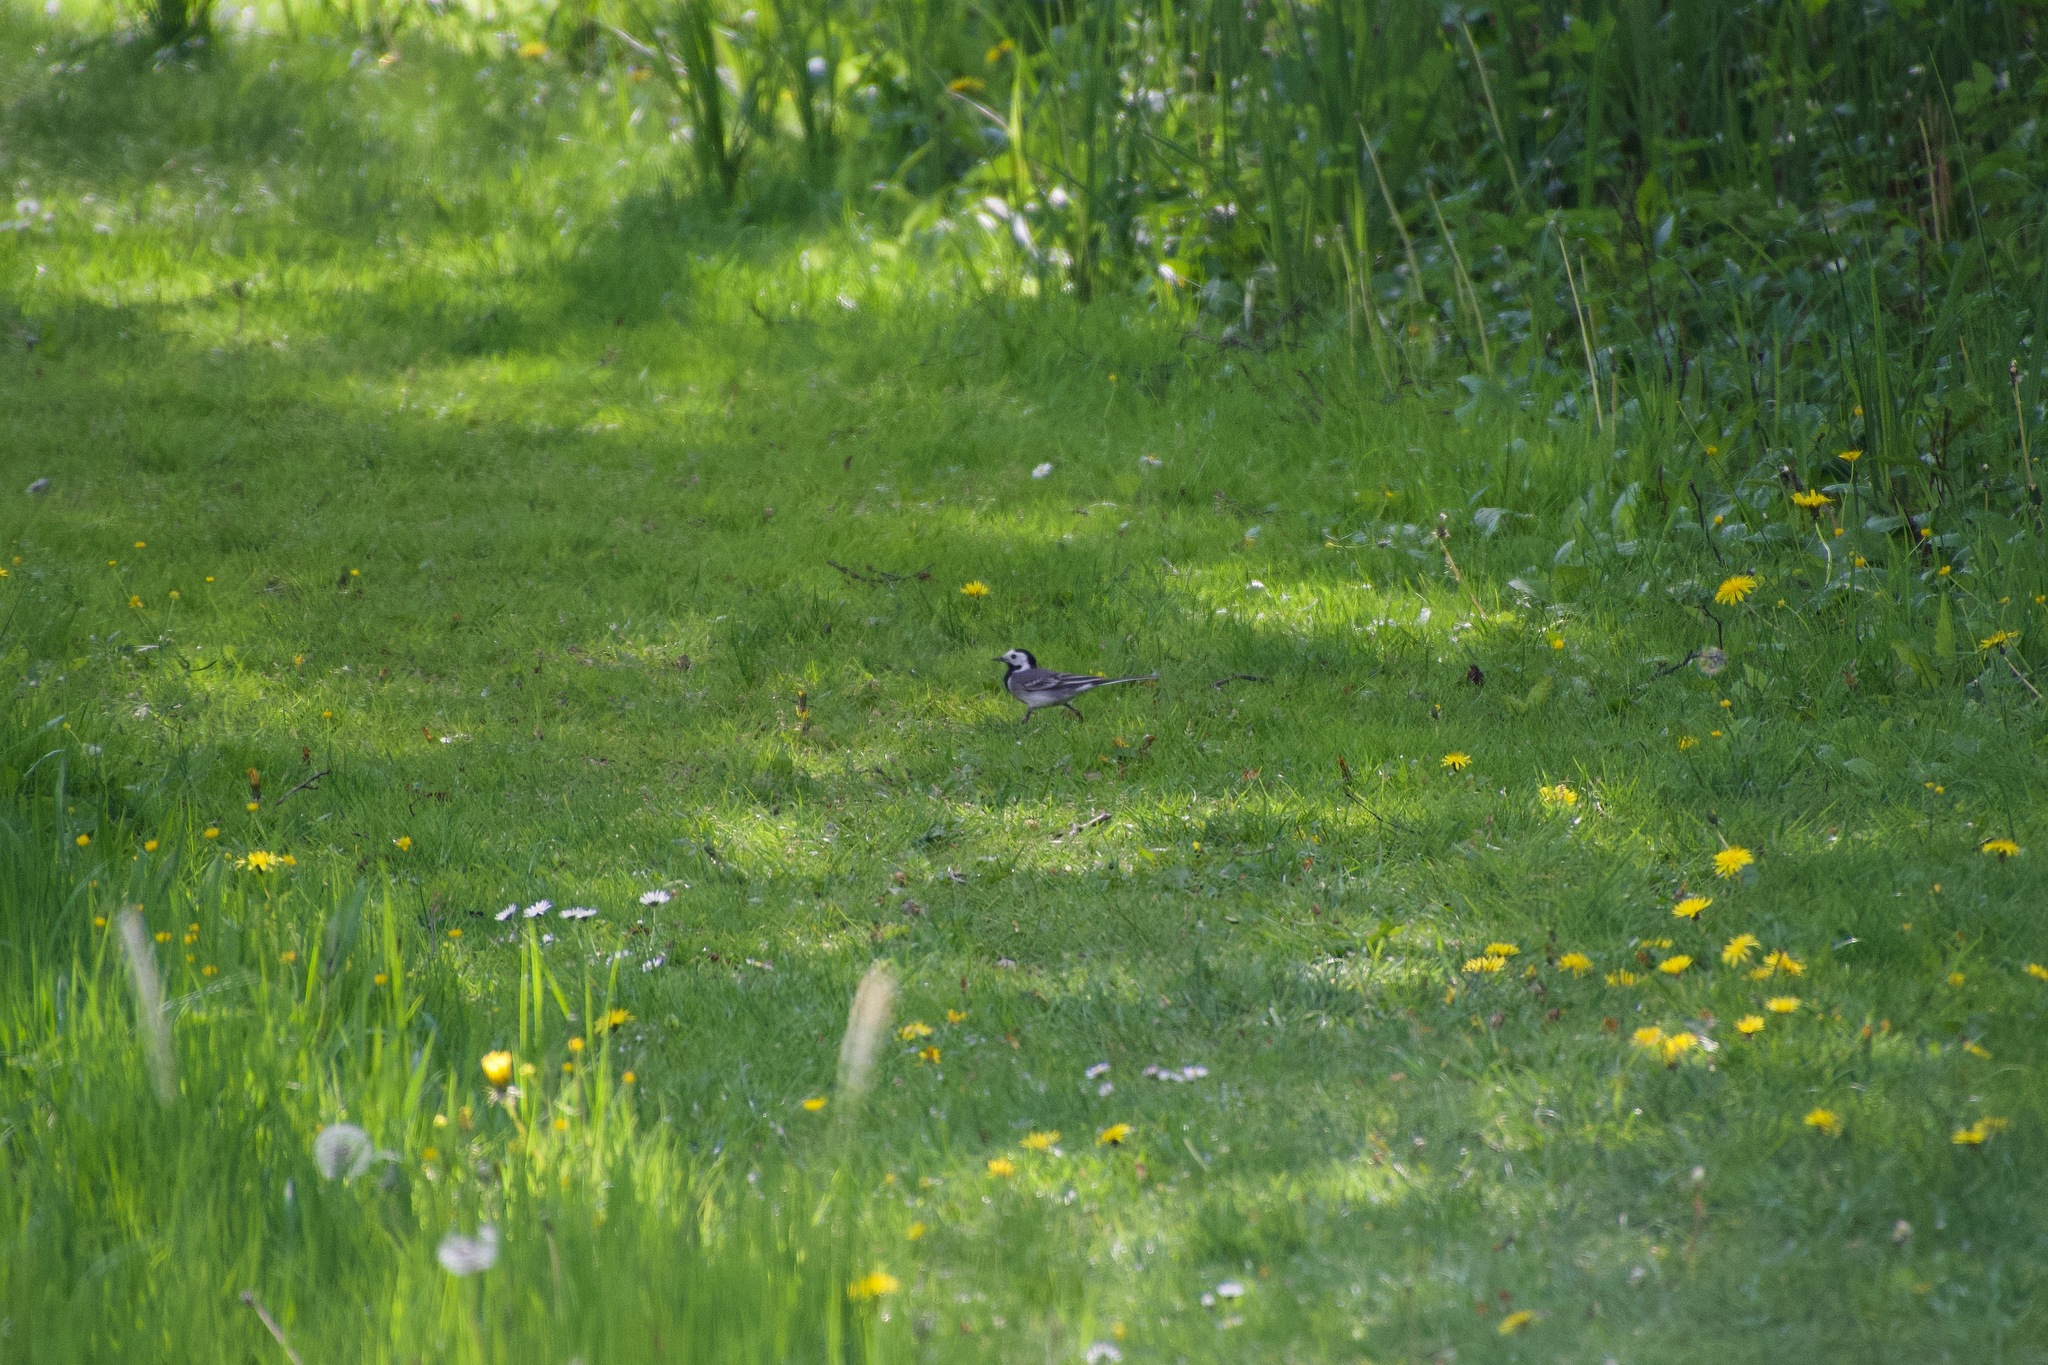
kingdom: Animalia
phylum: Chordata
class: Aves
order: Passeriformes
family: Motacillidae
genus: Motacilla
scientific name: Motacilla alba
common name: White wagtail
